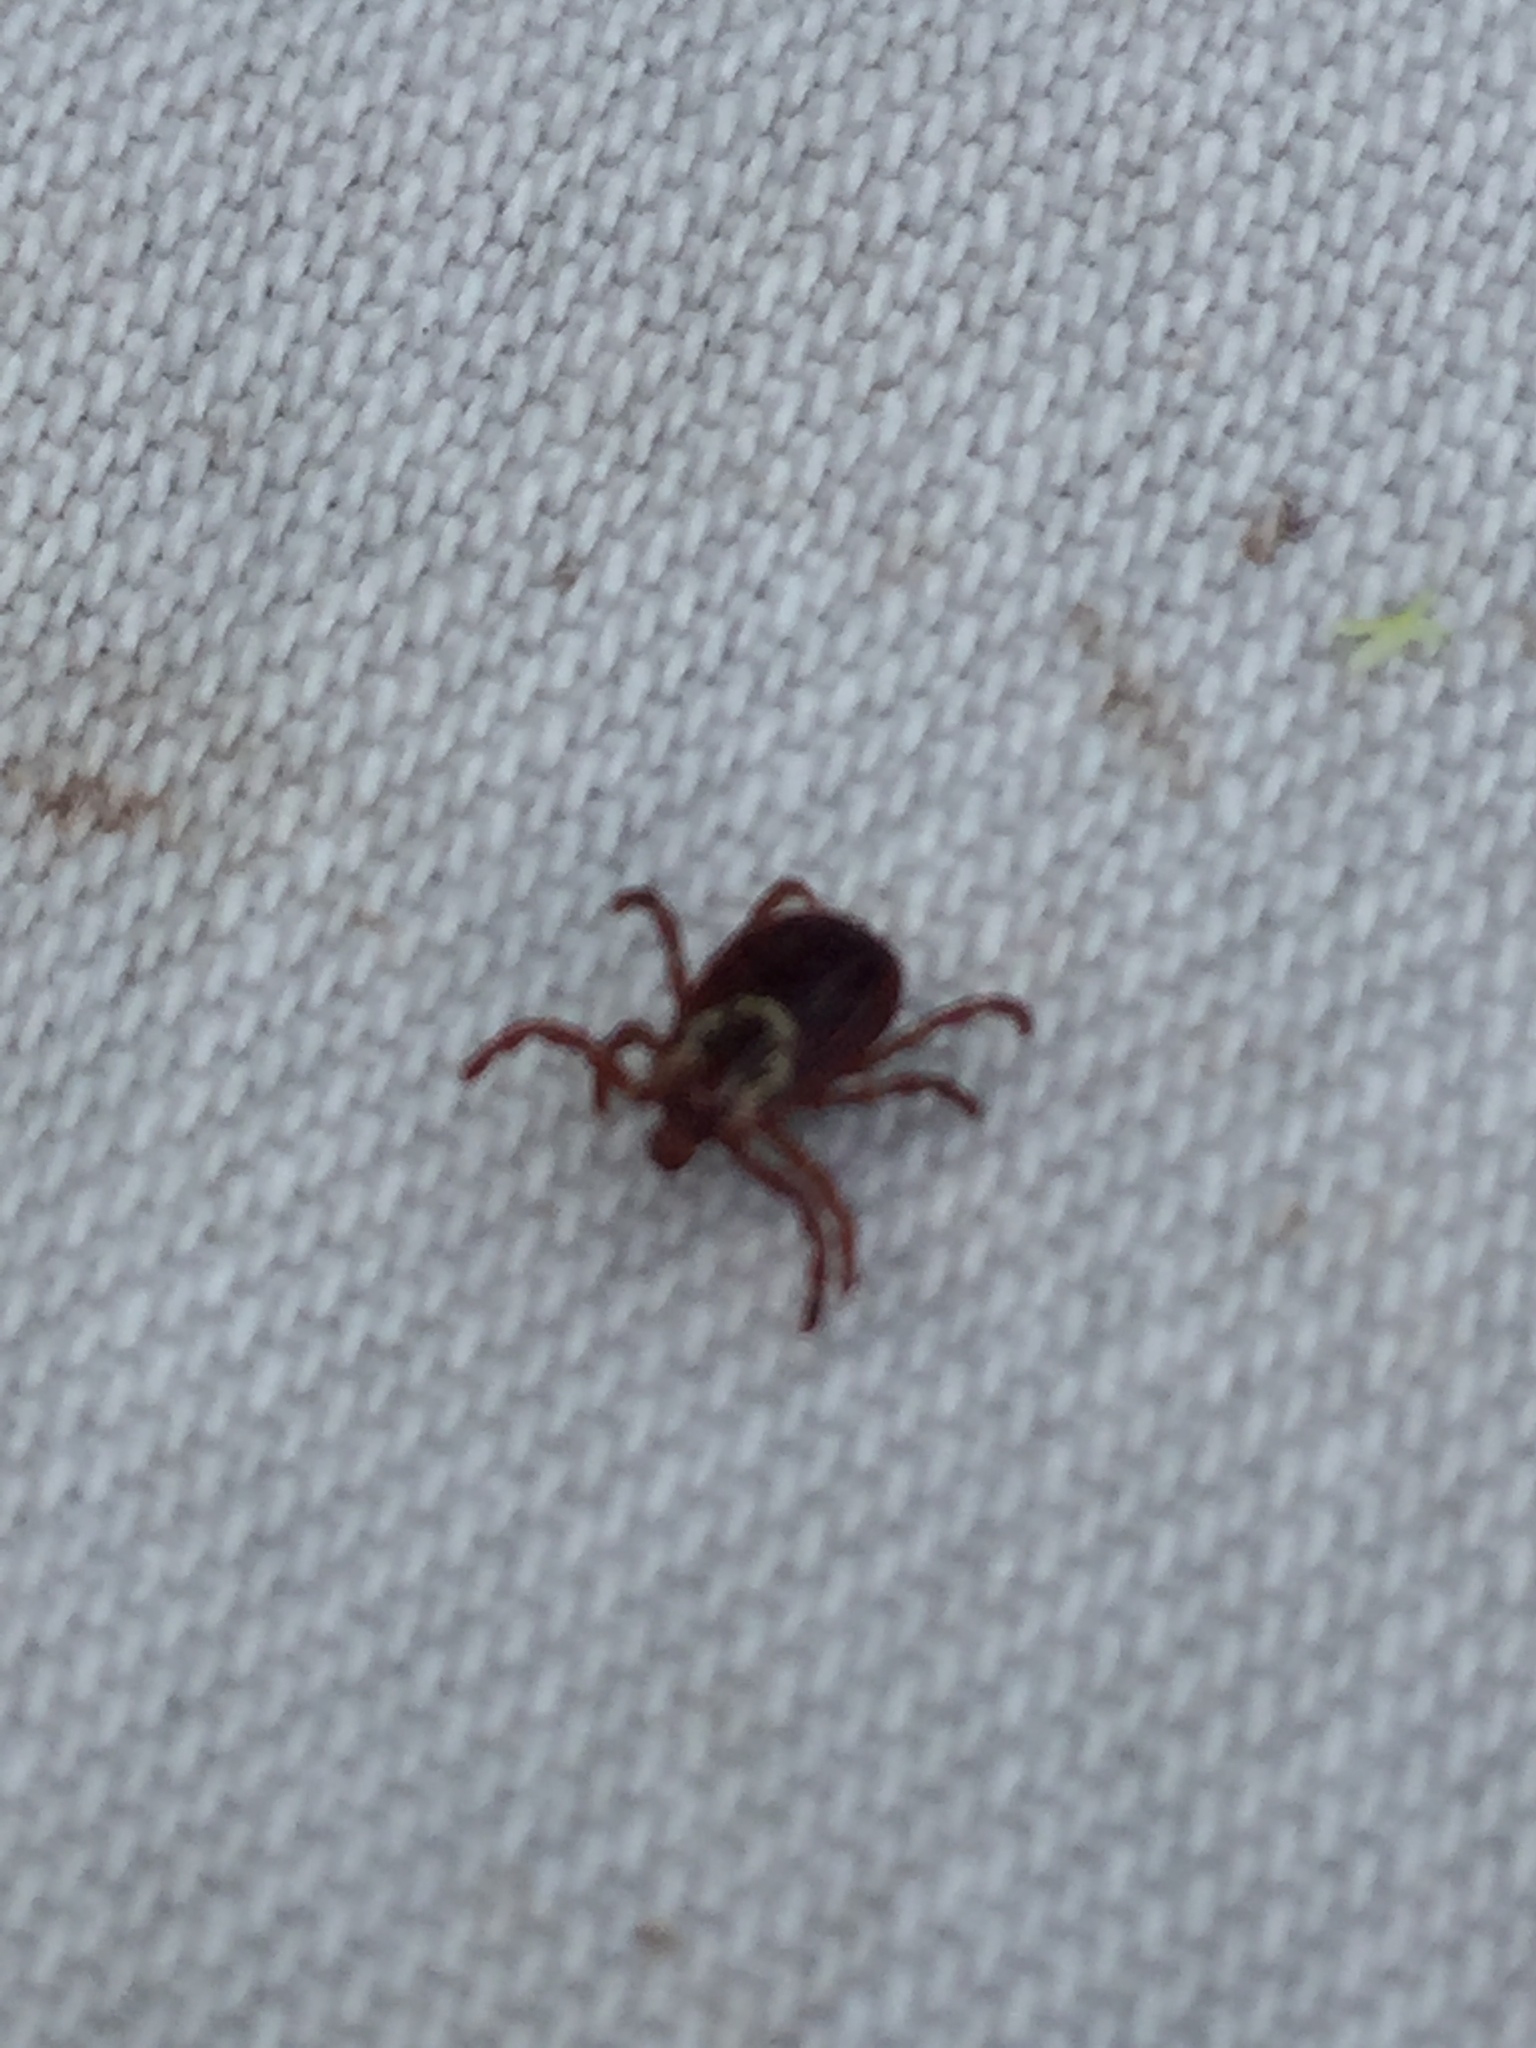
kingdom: Animalia
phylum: Arthropoda
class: Arachnida
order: Ixodida
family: Ixodidae
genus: Dermacentor
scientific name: Dermacentor variabilis
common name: American dog tick
